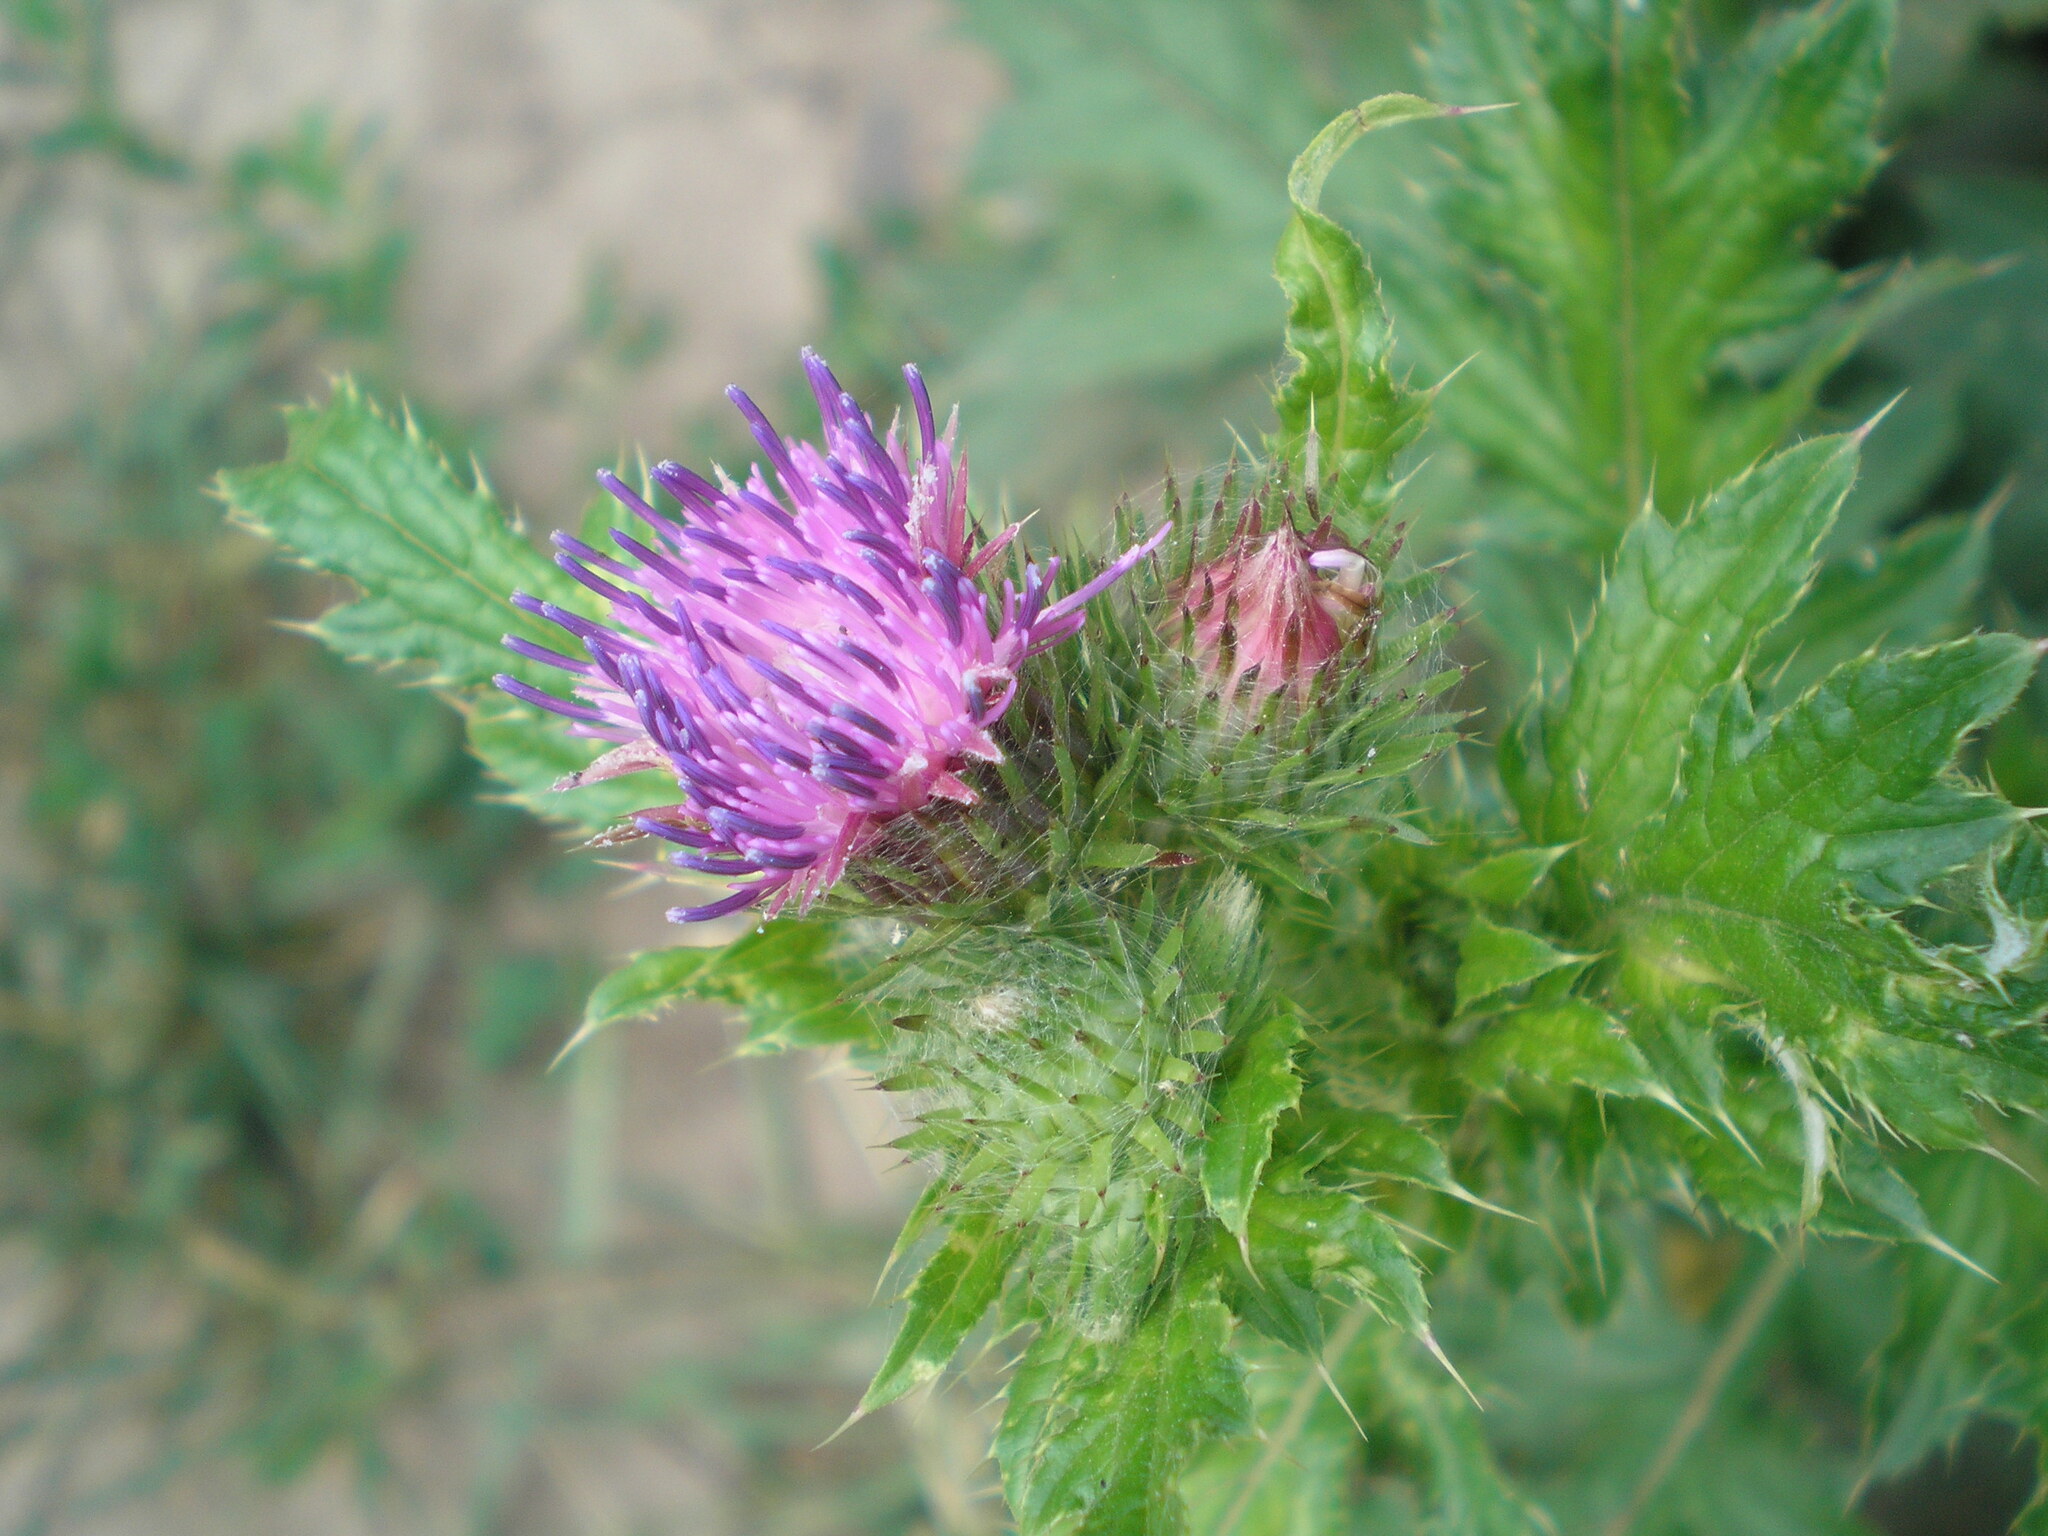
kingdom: Plantae
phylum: Tracheophyta
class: Magnoliopsida
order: Asterales
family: Asteraceae
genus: Carduus
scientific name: Carduus crispus
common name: Welted thistle
